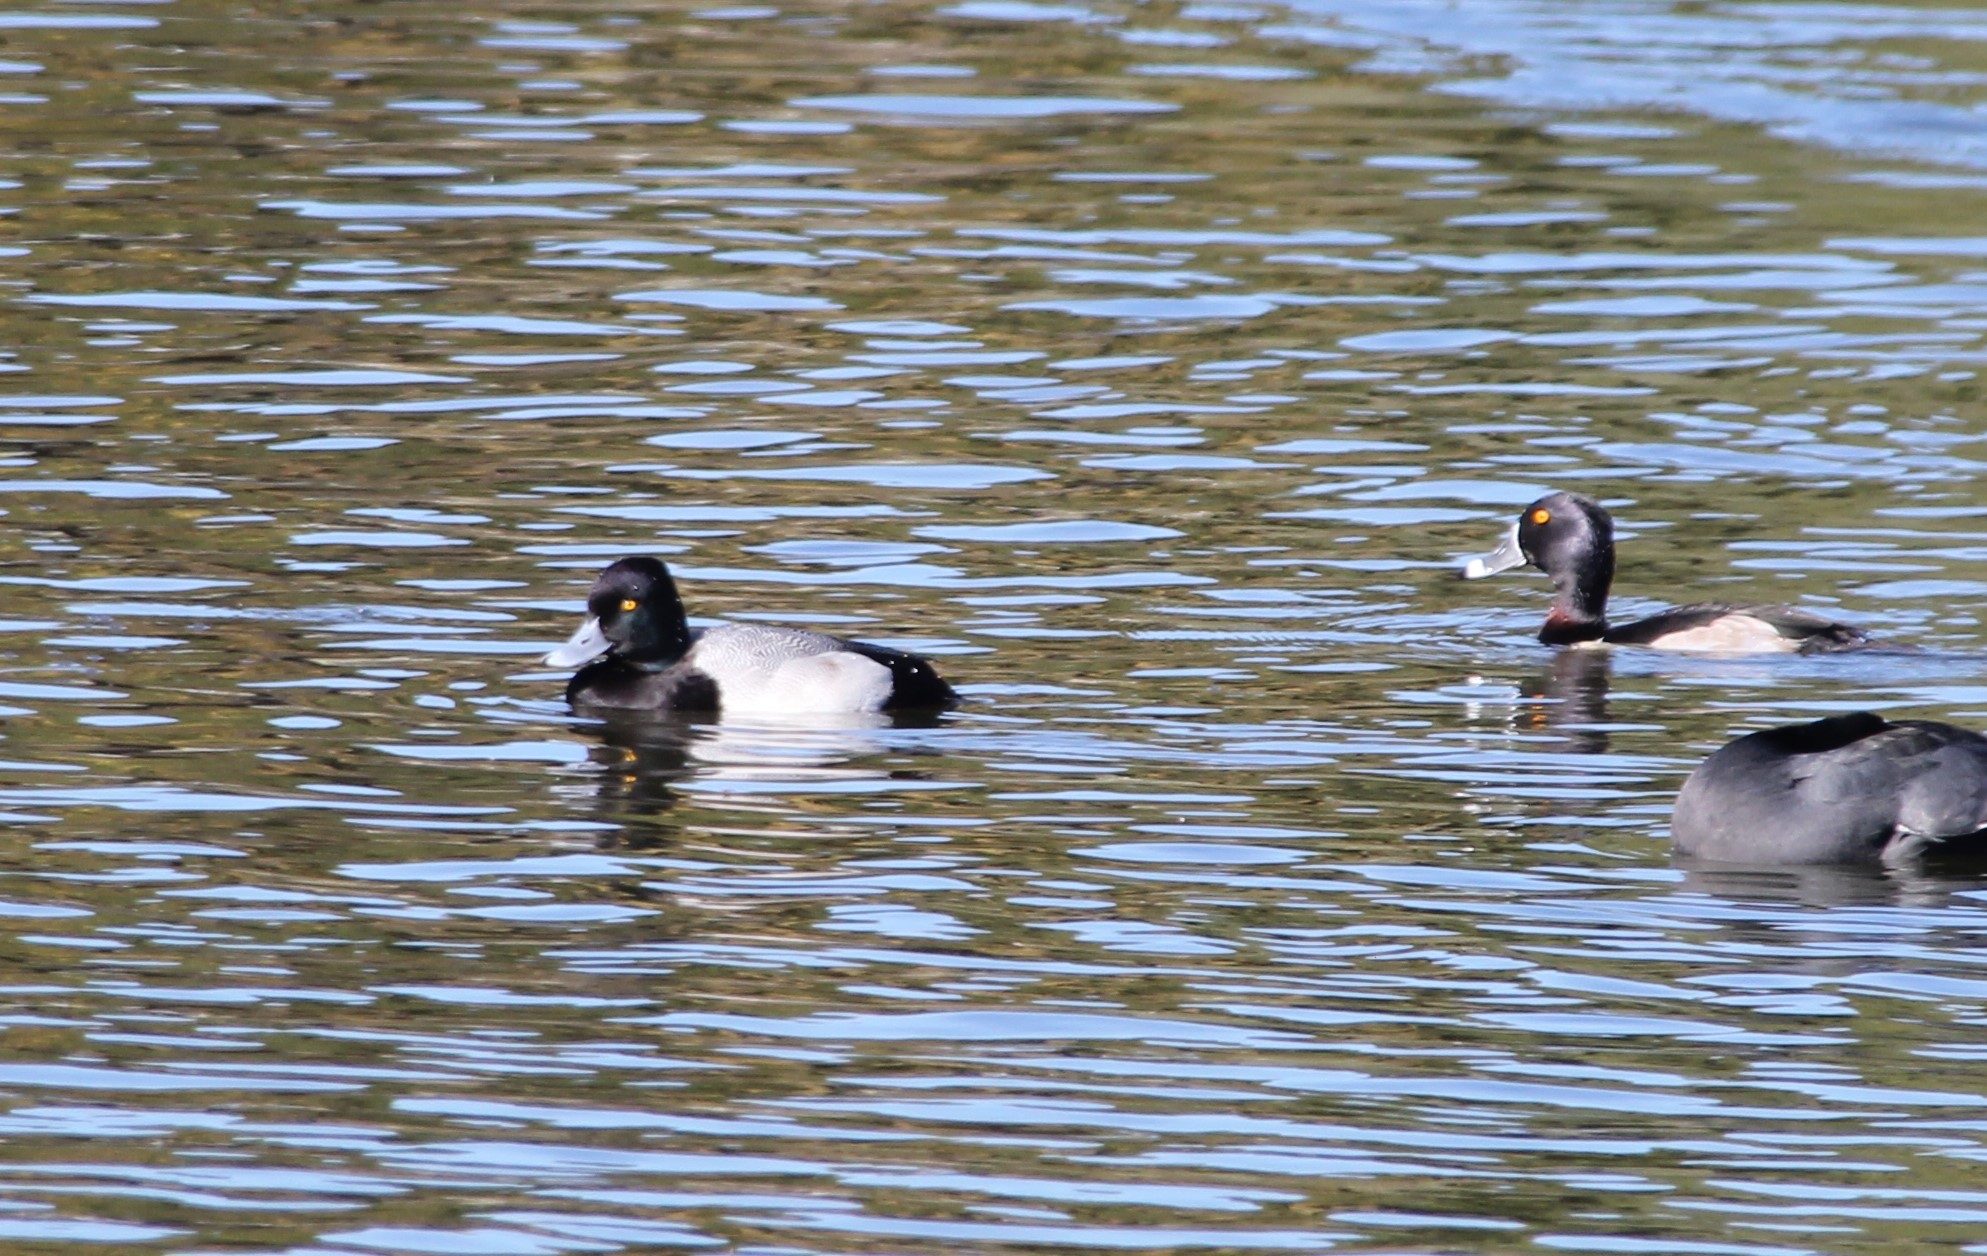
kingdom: Animalia
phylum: Chordata
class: Aves
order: Anseriformes
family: Anatidae
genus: Aythya
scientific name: Aythya affinis
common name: Lesser scaup
